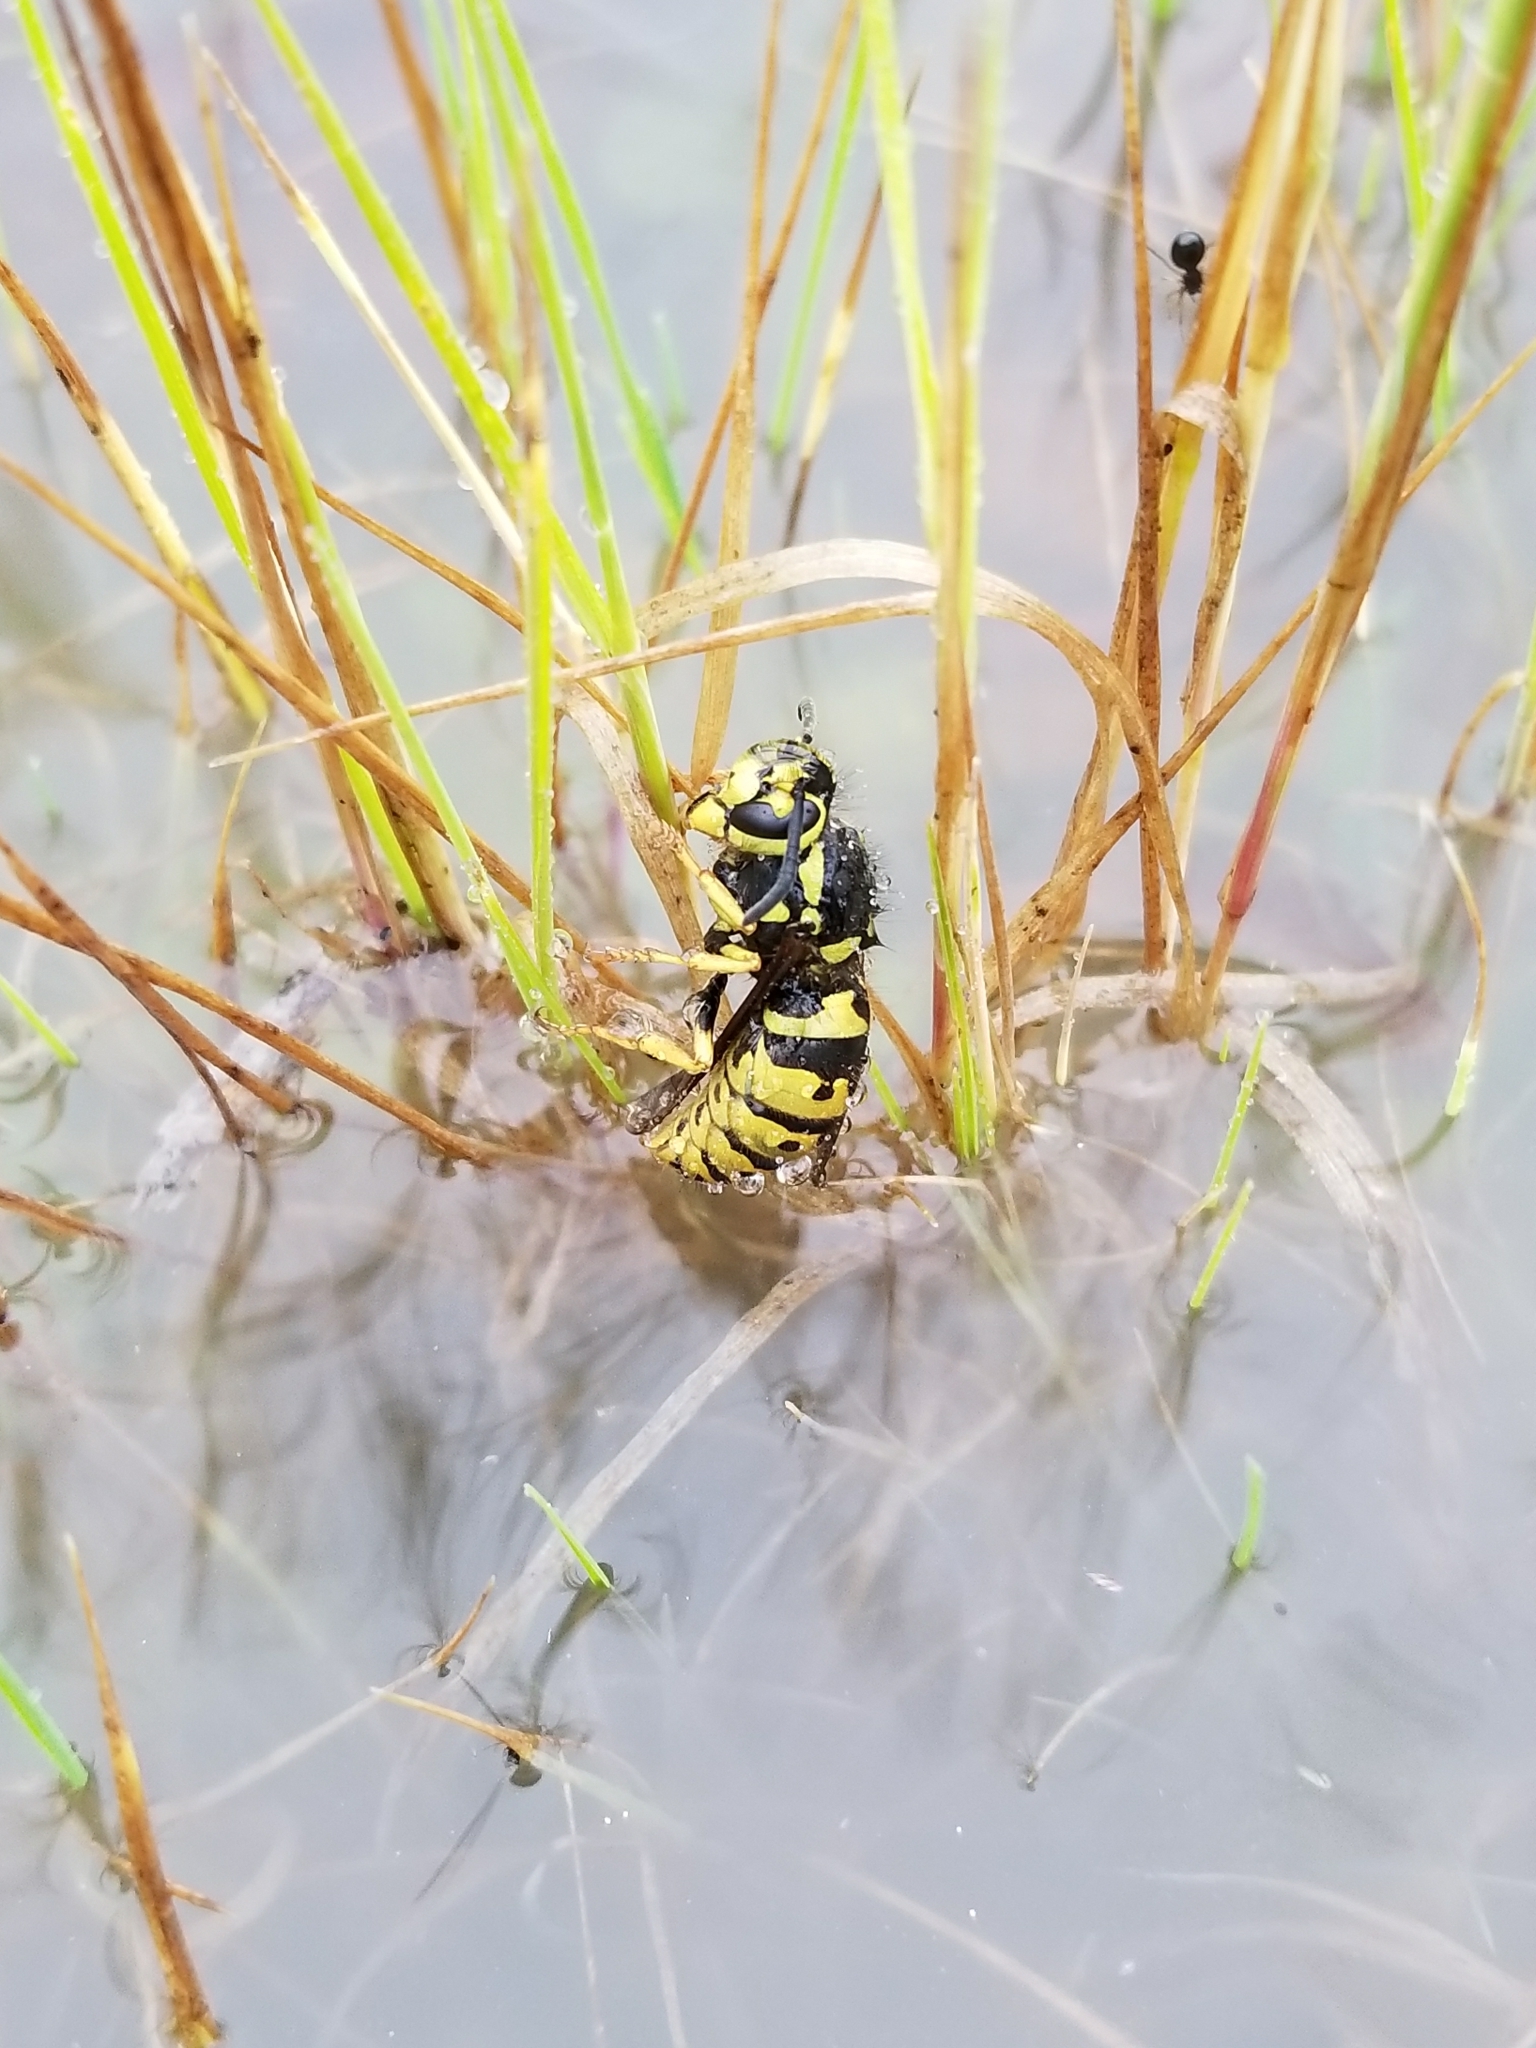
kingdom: Animalia
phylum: Arthropoda
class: Insecta
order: Hymenoptera
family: Vespidae
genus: Vespula
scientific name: Vespula pensylvanica
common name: Western yellowjacket
